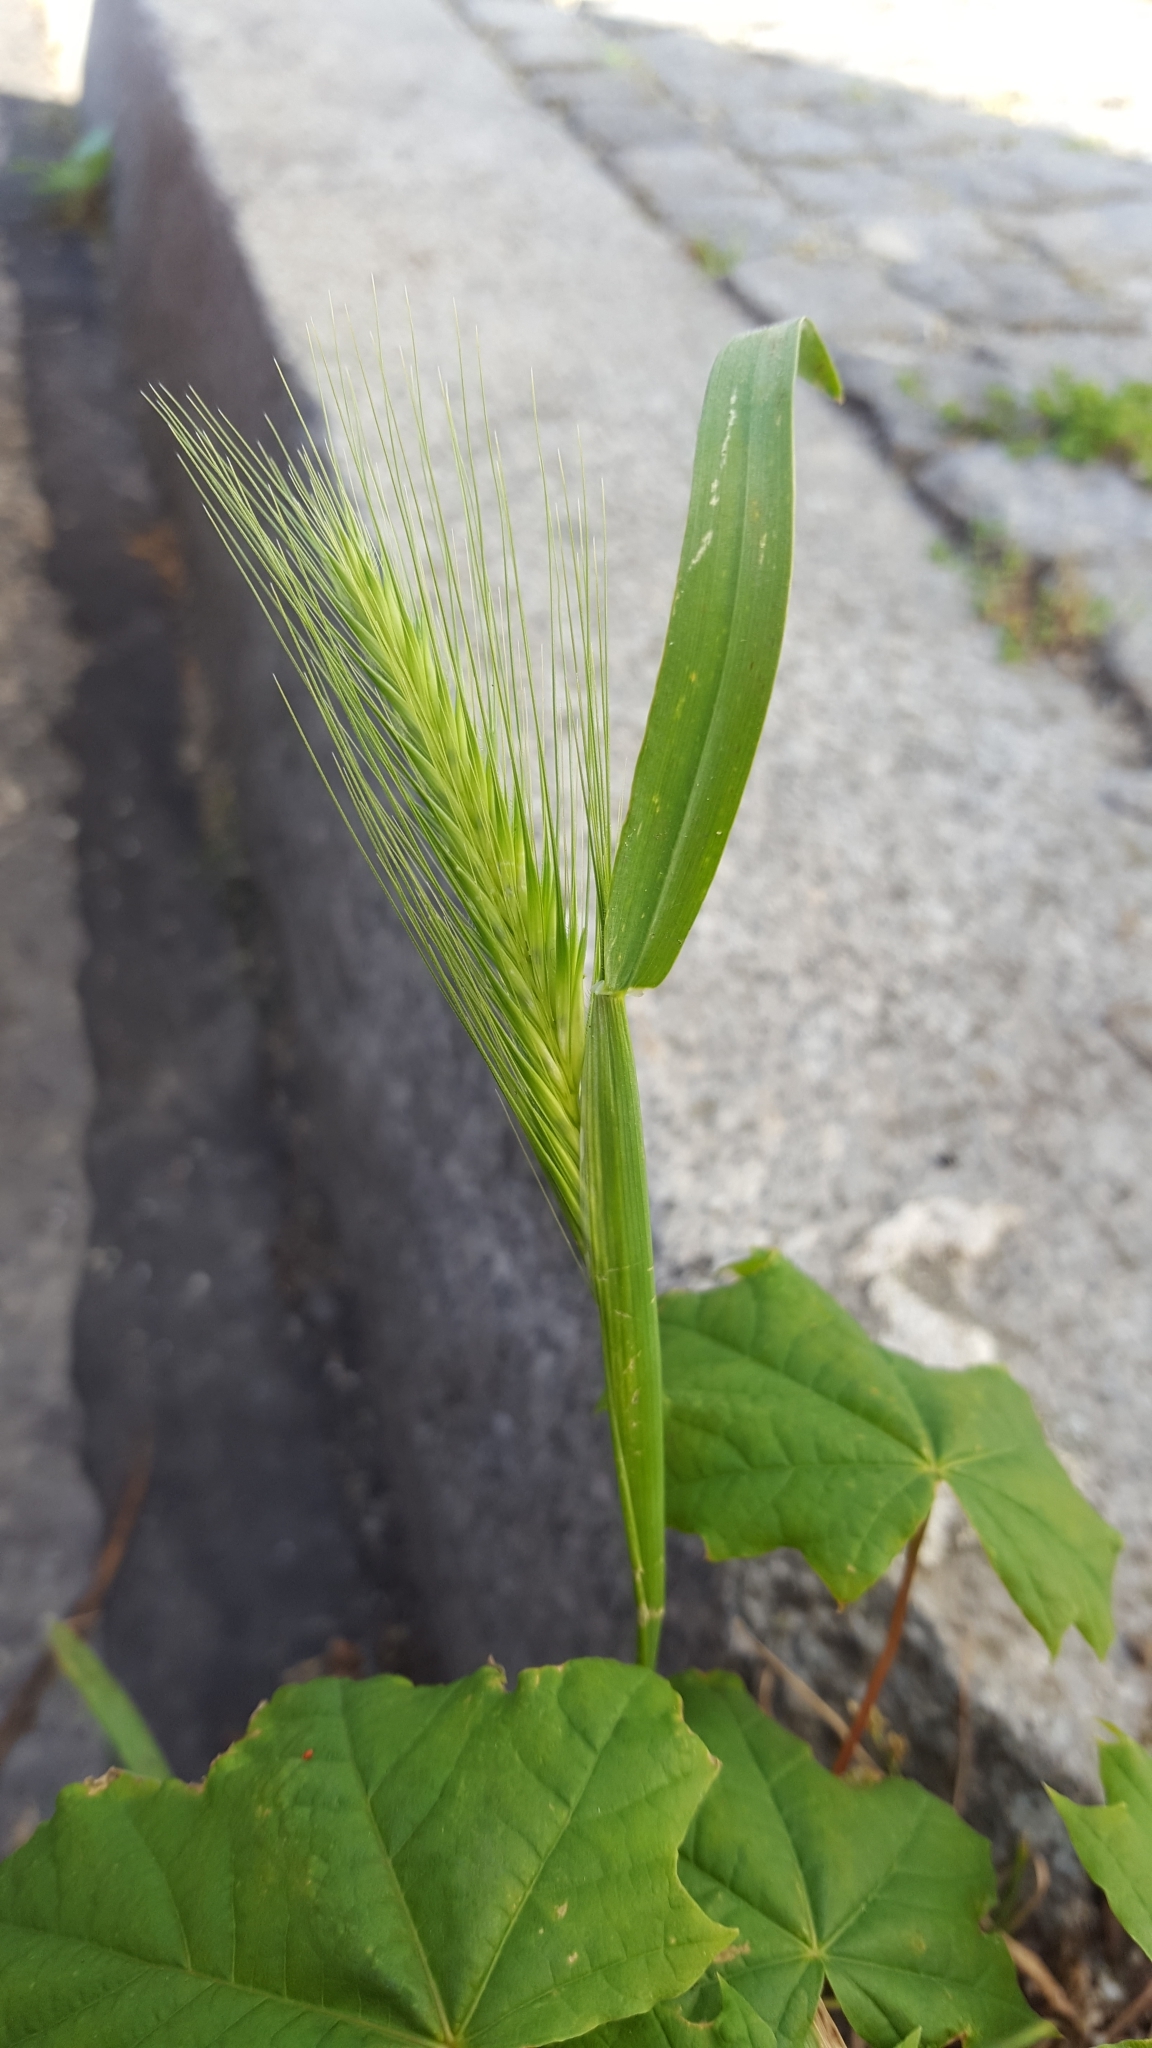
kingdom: Plantae
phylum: Tracheophyta
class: Liliopsida
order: Poales
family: Poaceae
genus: Hordeum
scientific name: Hordeum murinum
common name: Wall barley
